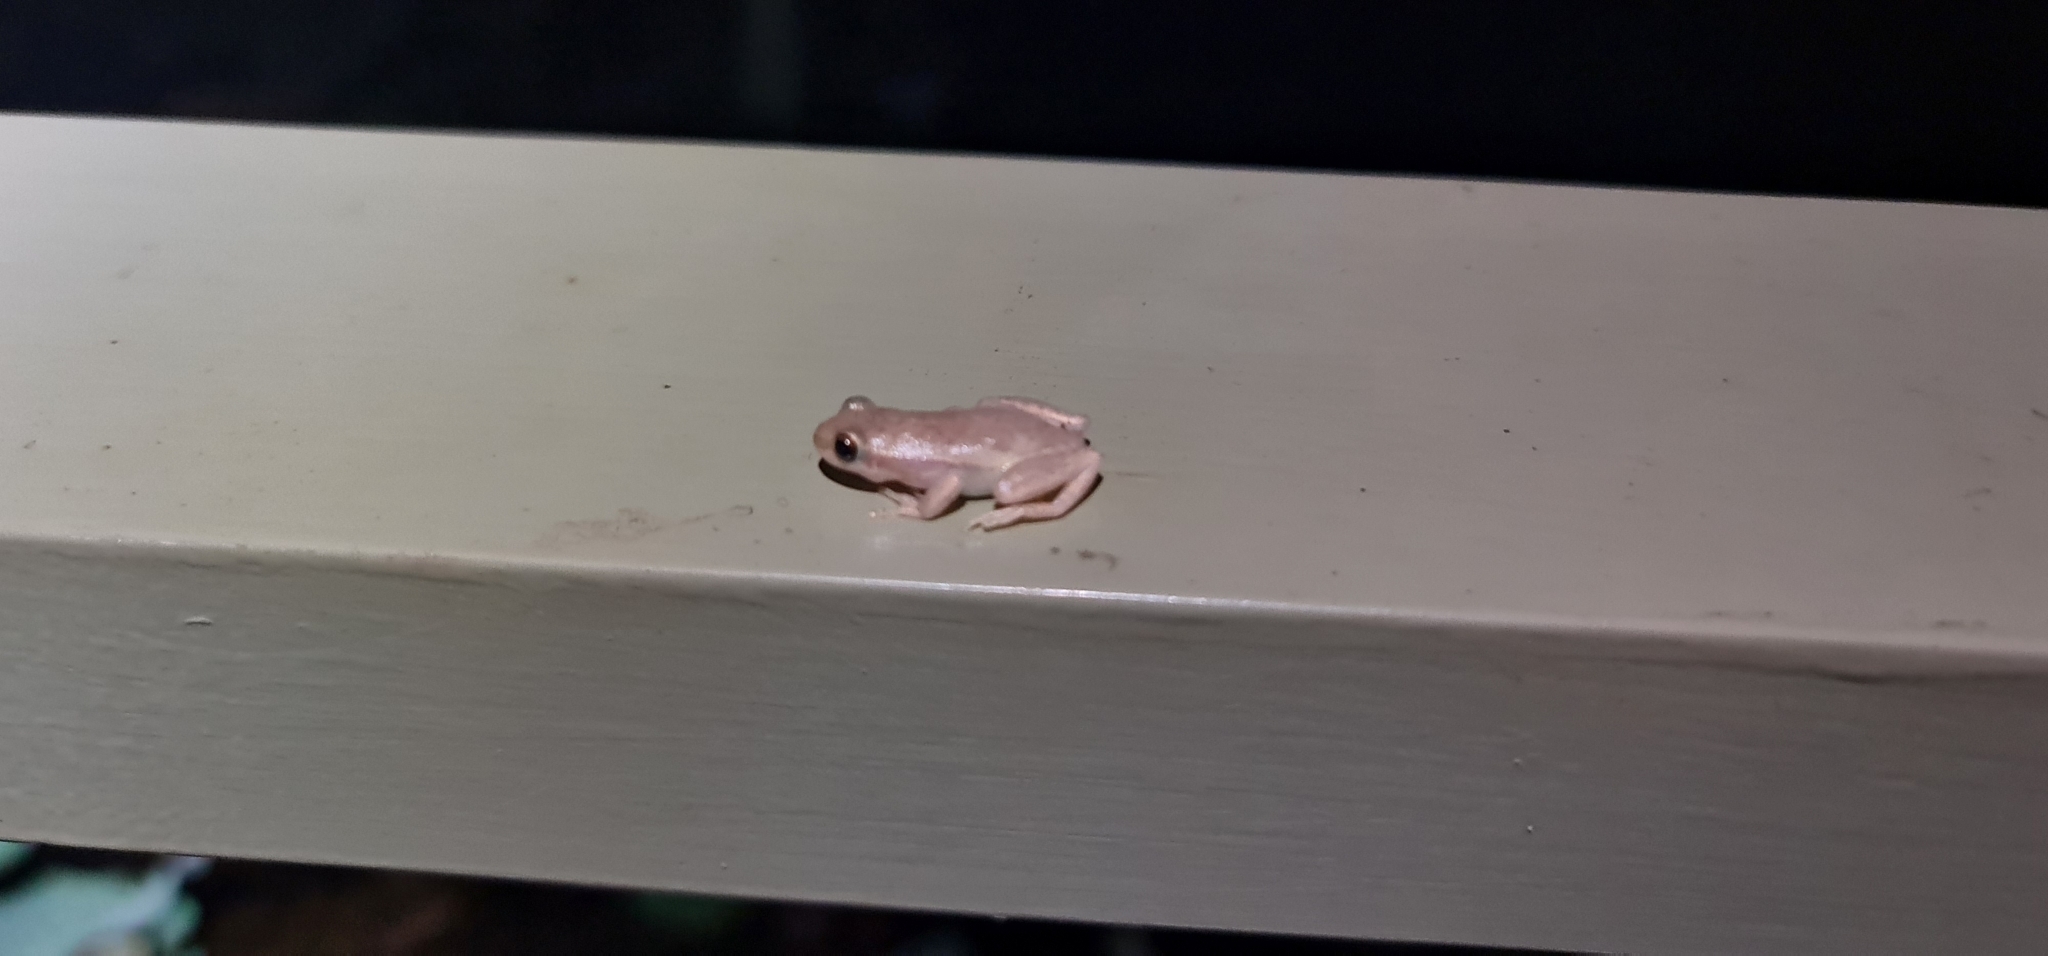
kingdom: Animalia
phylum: Chordata
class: Amphibia
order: Anura
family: Pelodryadidae
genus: Litoria
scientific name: Litoria rubella
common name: Desert tree frog
